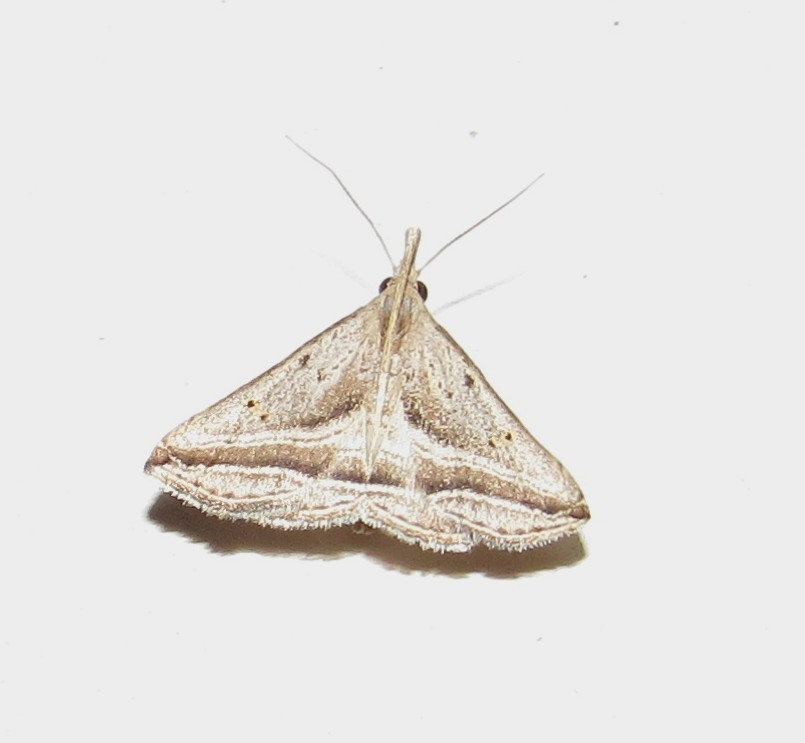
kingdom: Animalia
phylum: Arthropoda
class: Insecta
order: Lepidoptera
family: Erebidae
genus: Charmodia
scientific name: Charmodia vectis
